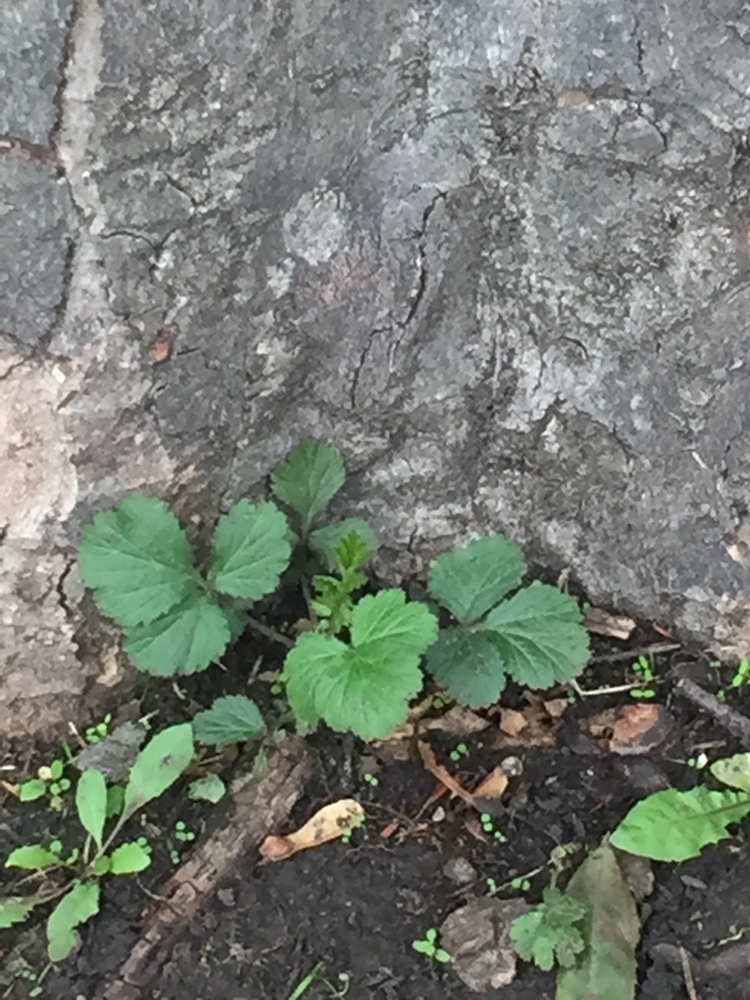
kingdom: Plantae
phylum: Tracheophyta
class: Magnoliopsida
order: Rosales
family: Rosaceae
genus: Geum
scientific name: Geum urbanum
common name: Wood avens
